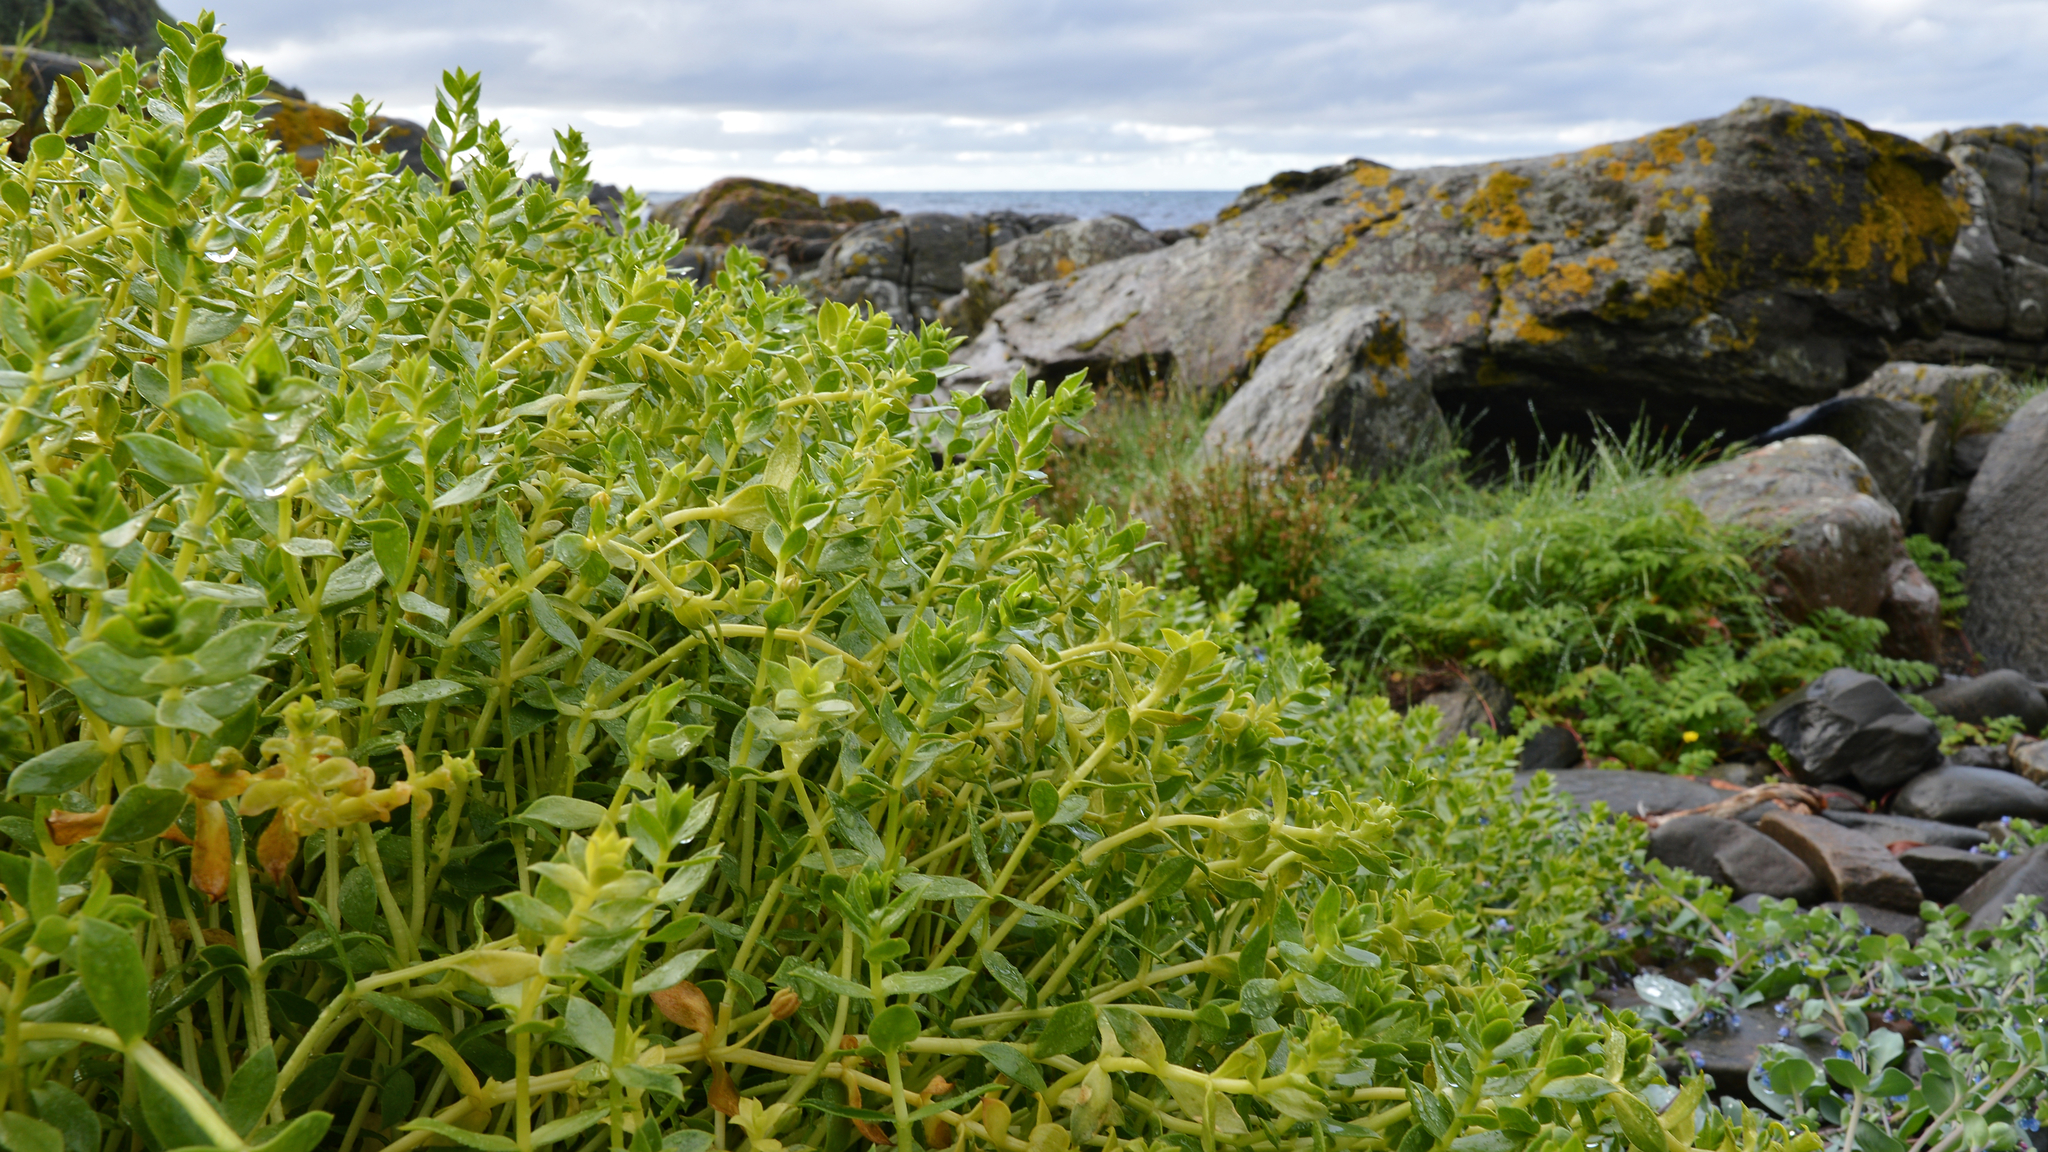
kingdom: Plantae
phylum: Tracheophyta
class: Magnoliopsida
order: Caryophyllales
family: Caryophyllaceae
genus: Honckenya
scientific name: Honckenya peploides
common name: Sea sandwort
